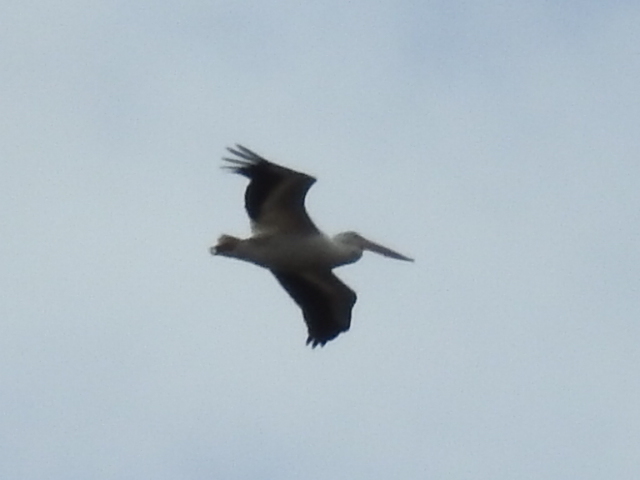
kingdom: Animalia
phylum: Chordata
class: Aves
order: Pelecaniformes
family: Pelecanidae
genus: Pelecanus
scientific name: Pelecanus erythrorhynchos
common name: American white pelican
